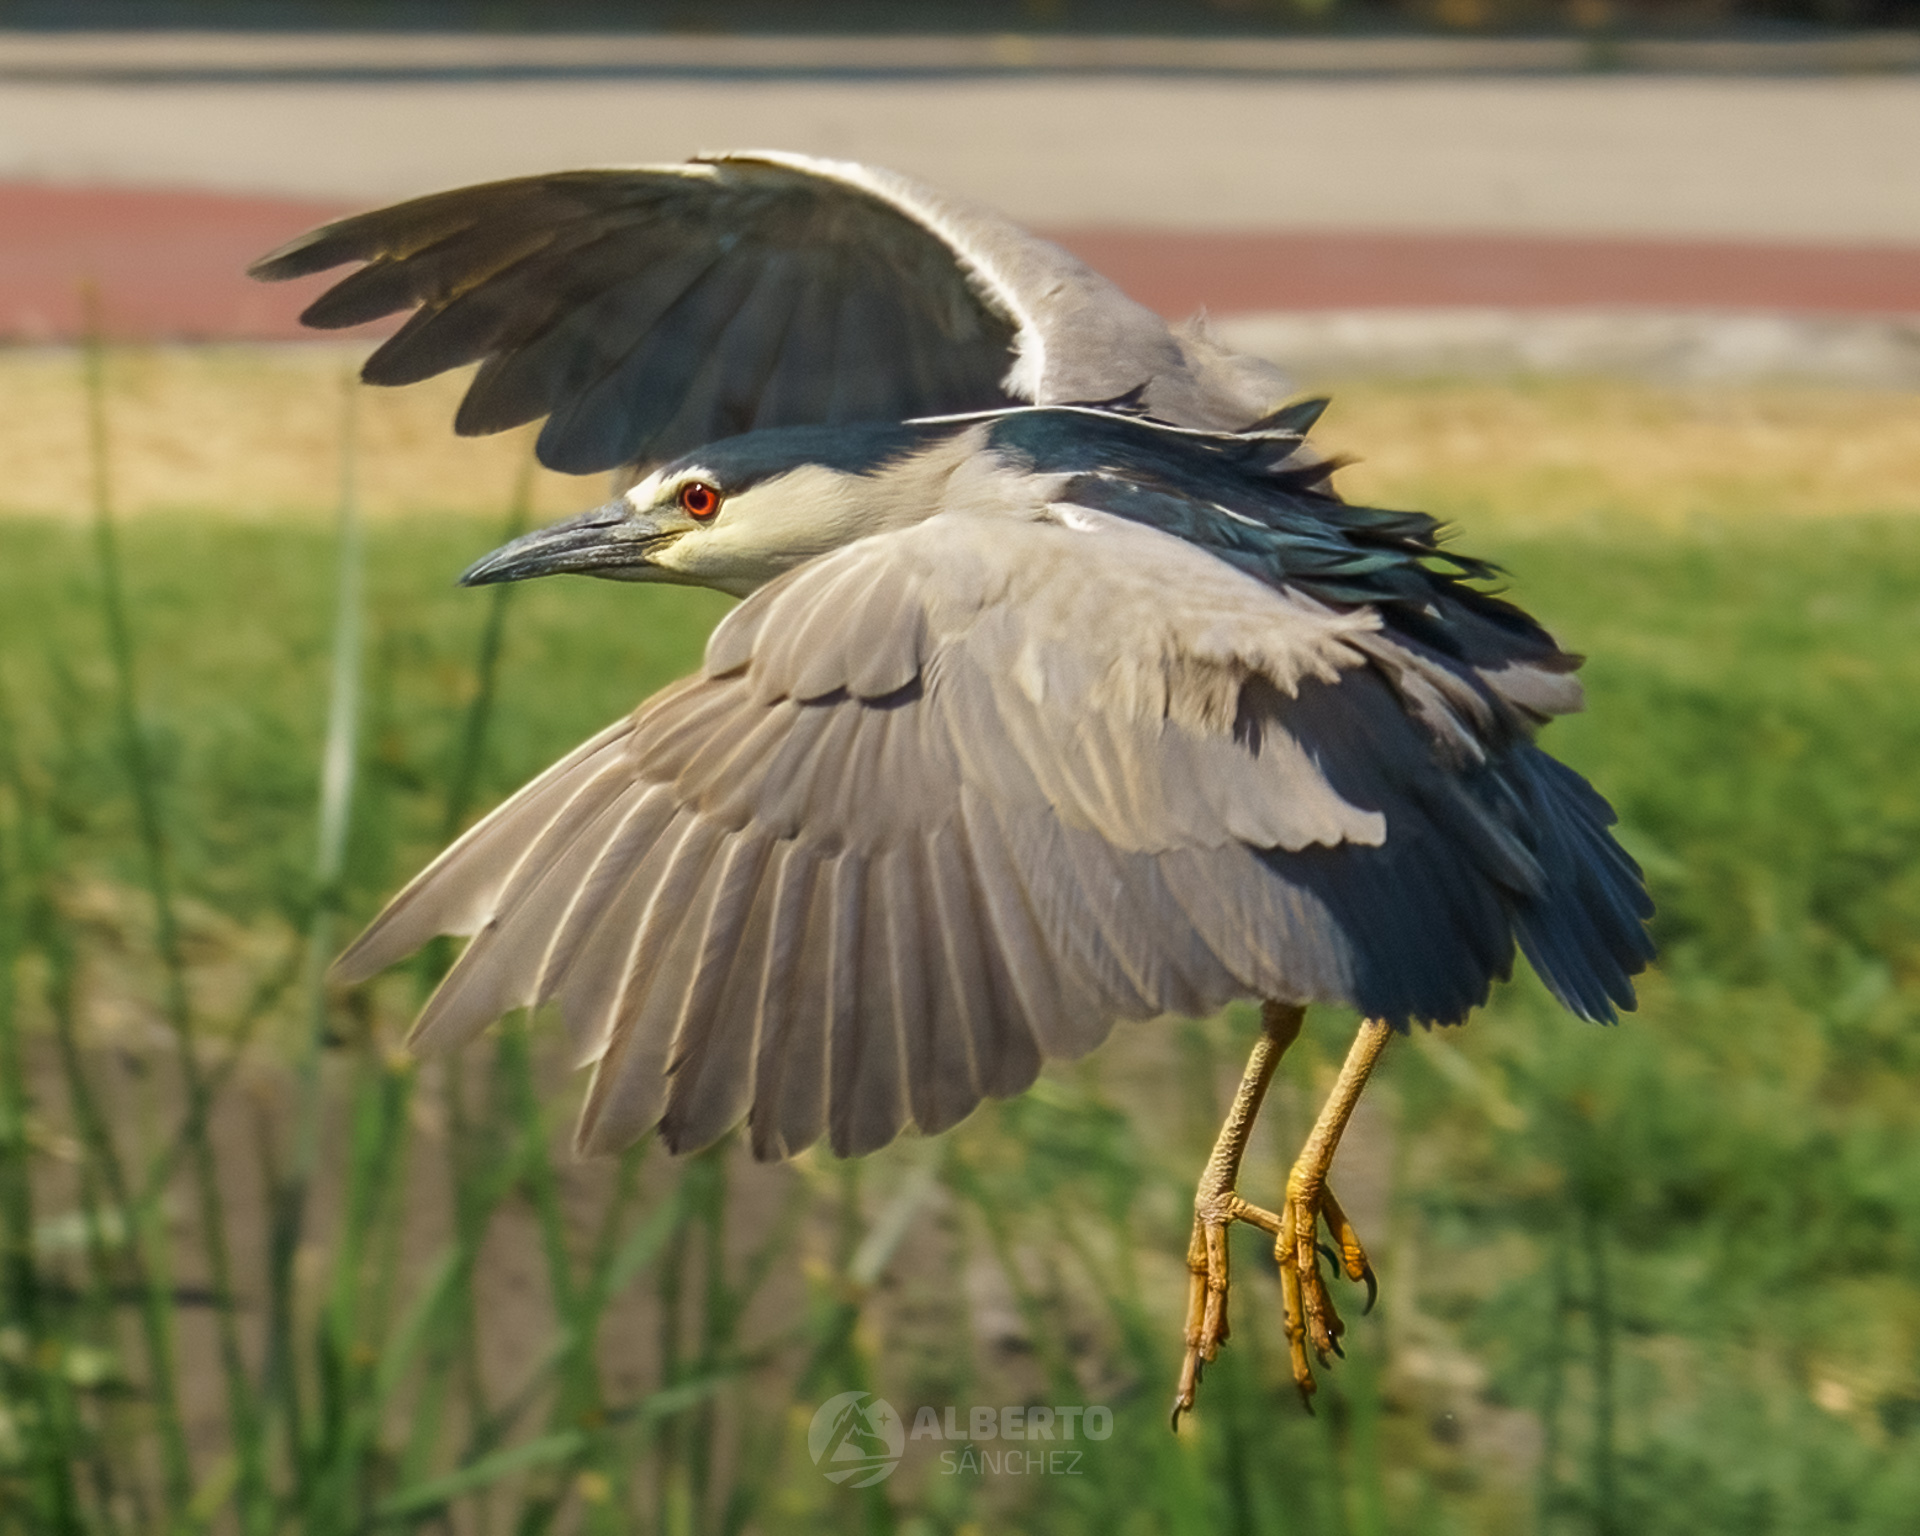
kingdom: Animalia
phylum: Chordata
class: Aves
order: Pelecaniformes
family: Ardeidae
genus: Nycticorax
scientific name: Nycticorax nycticorax
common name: Black-crowned night heron
